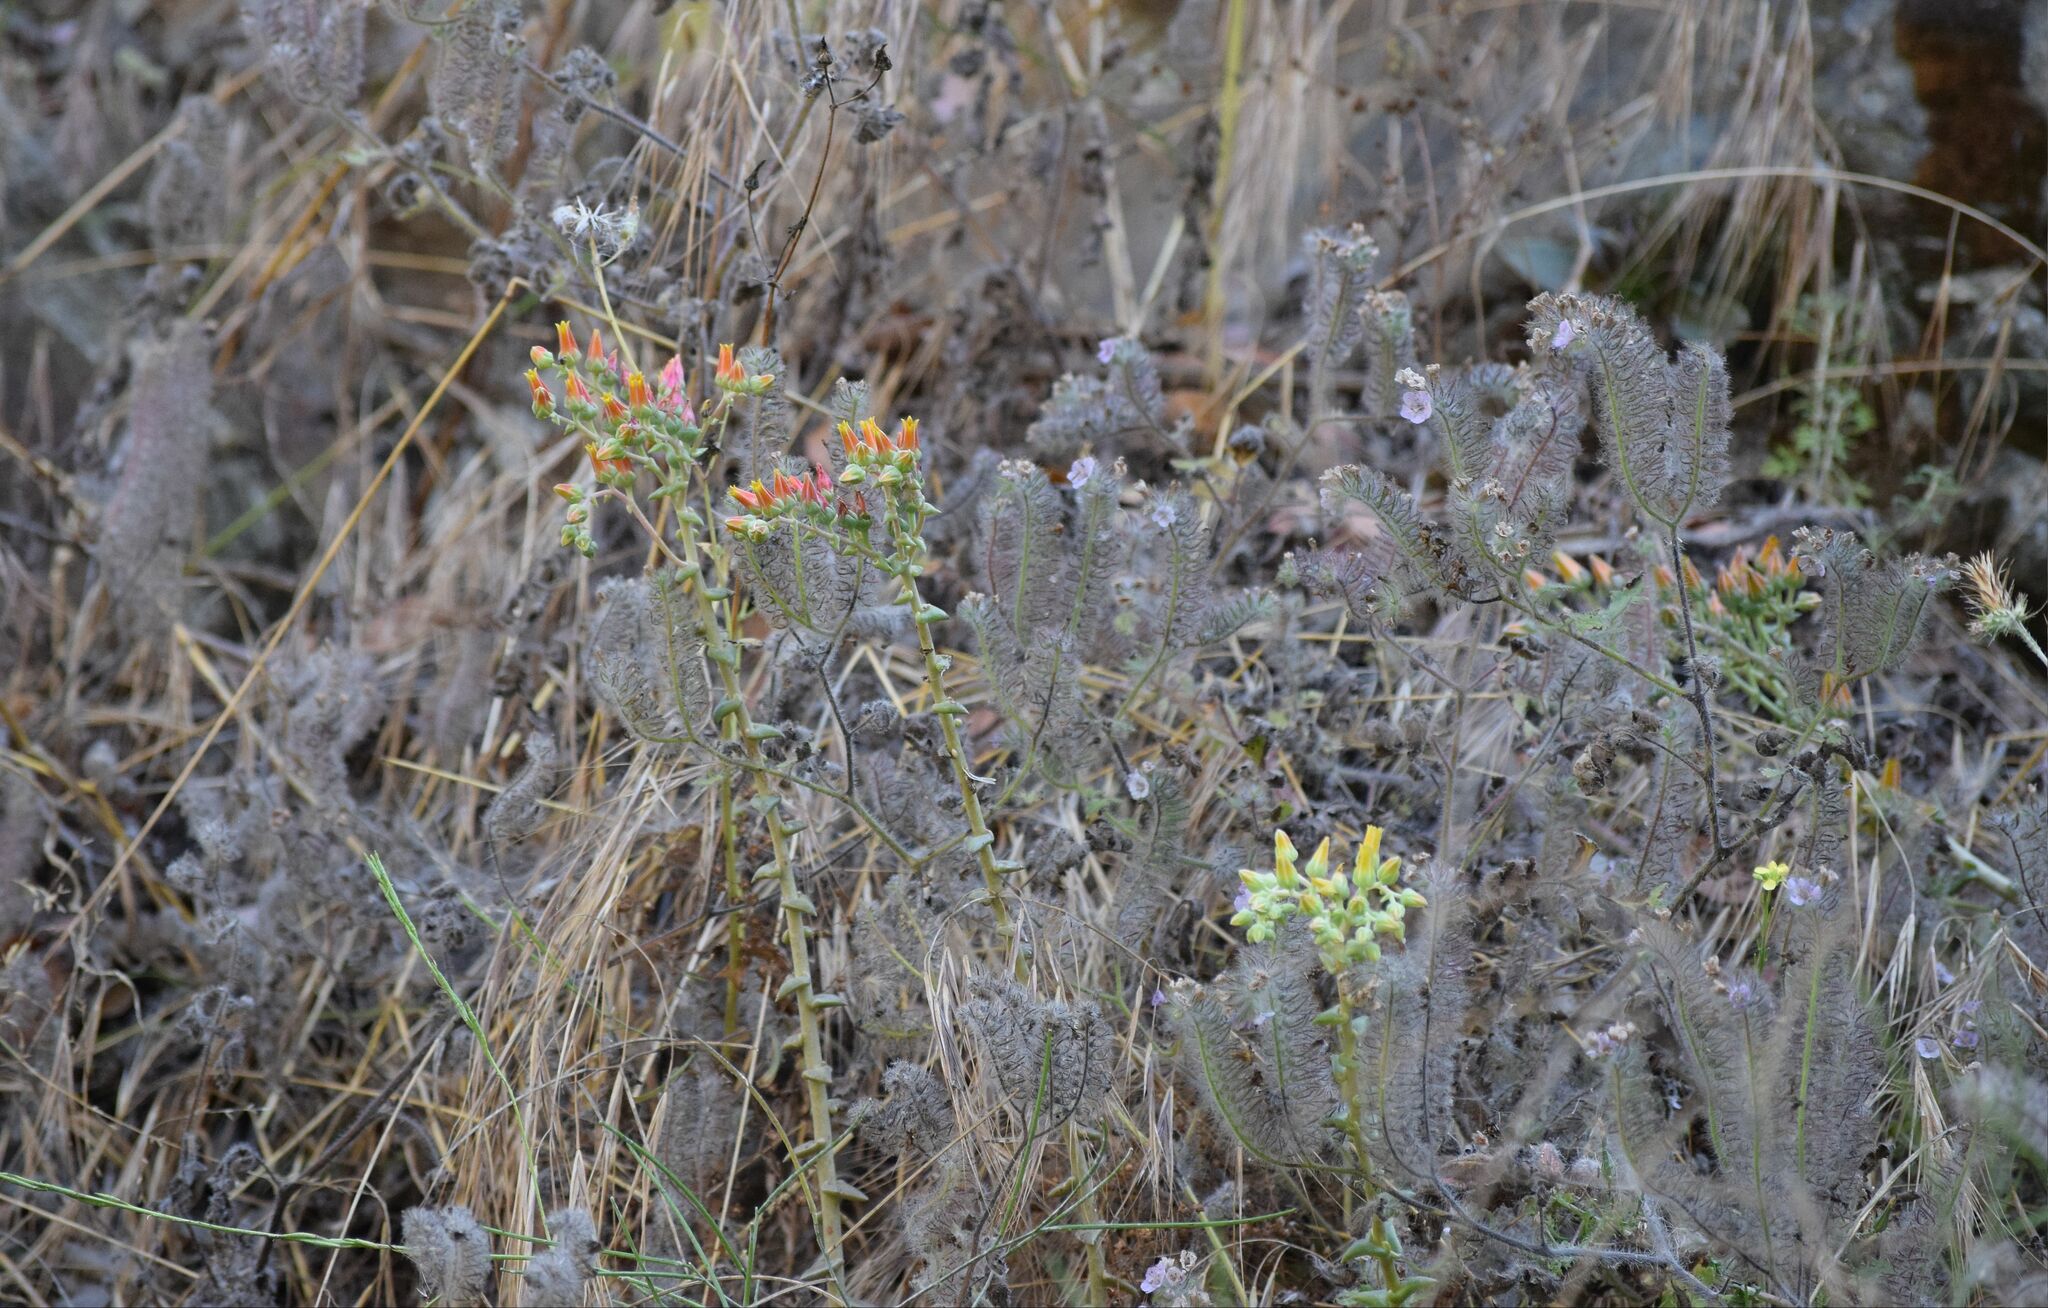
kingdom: Plantae
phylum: Tracheophyta
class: Magnoliopsida
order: Saxifragales
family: Crassulaceae
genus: Dudleya
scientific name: Dudleya lanceolata
